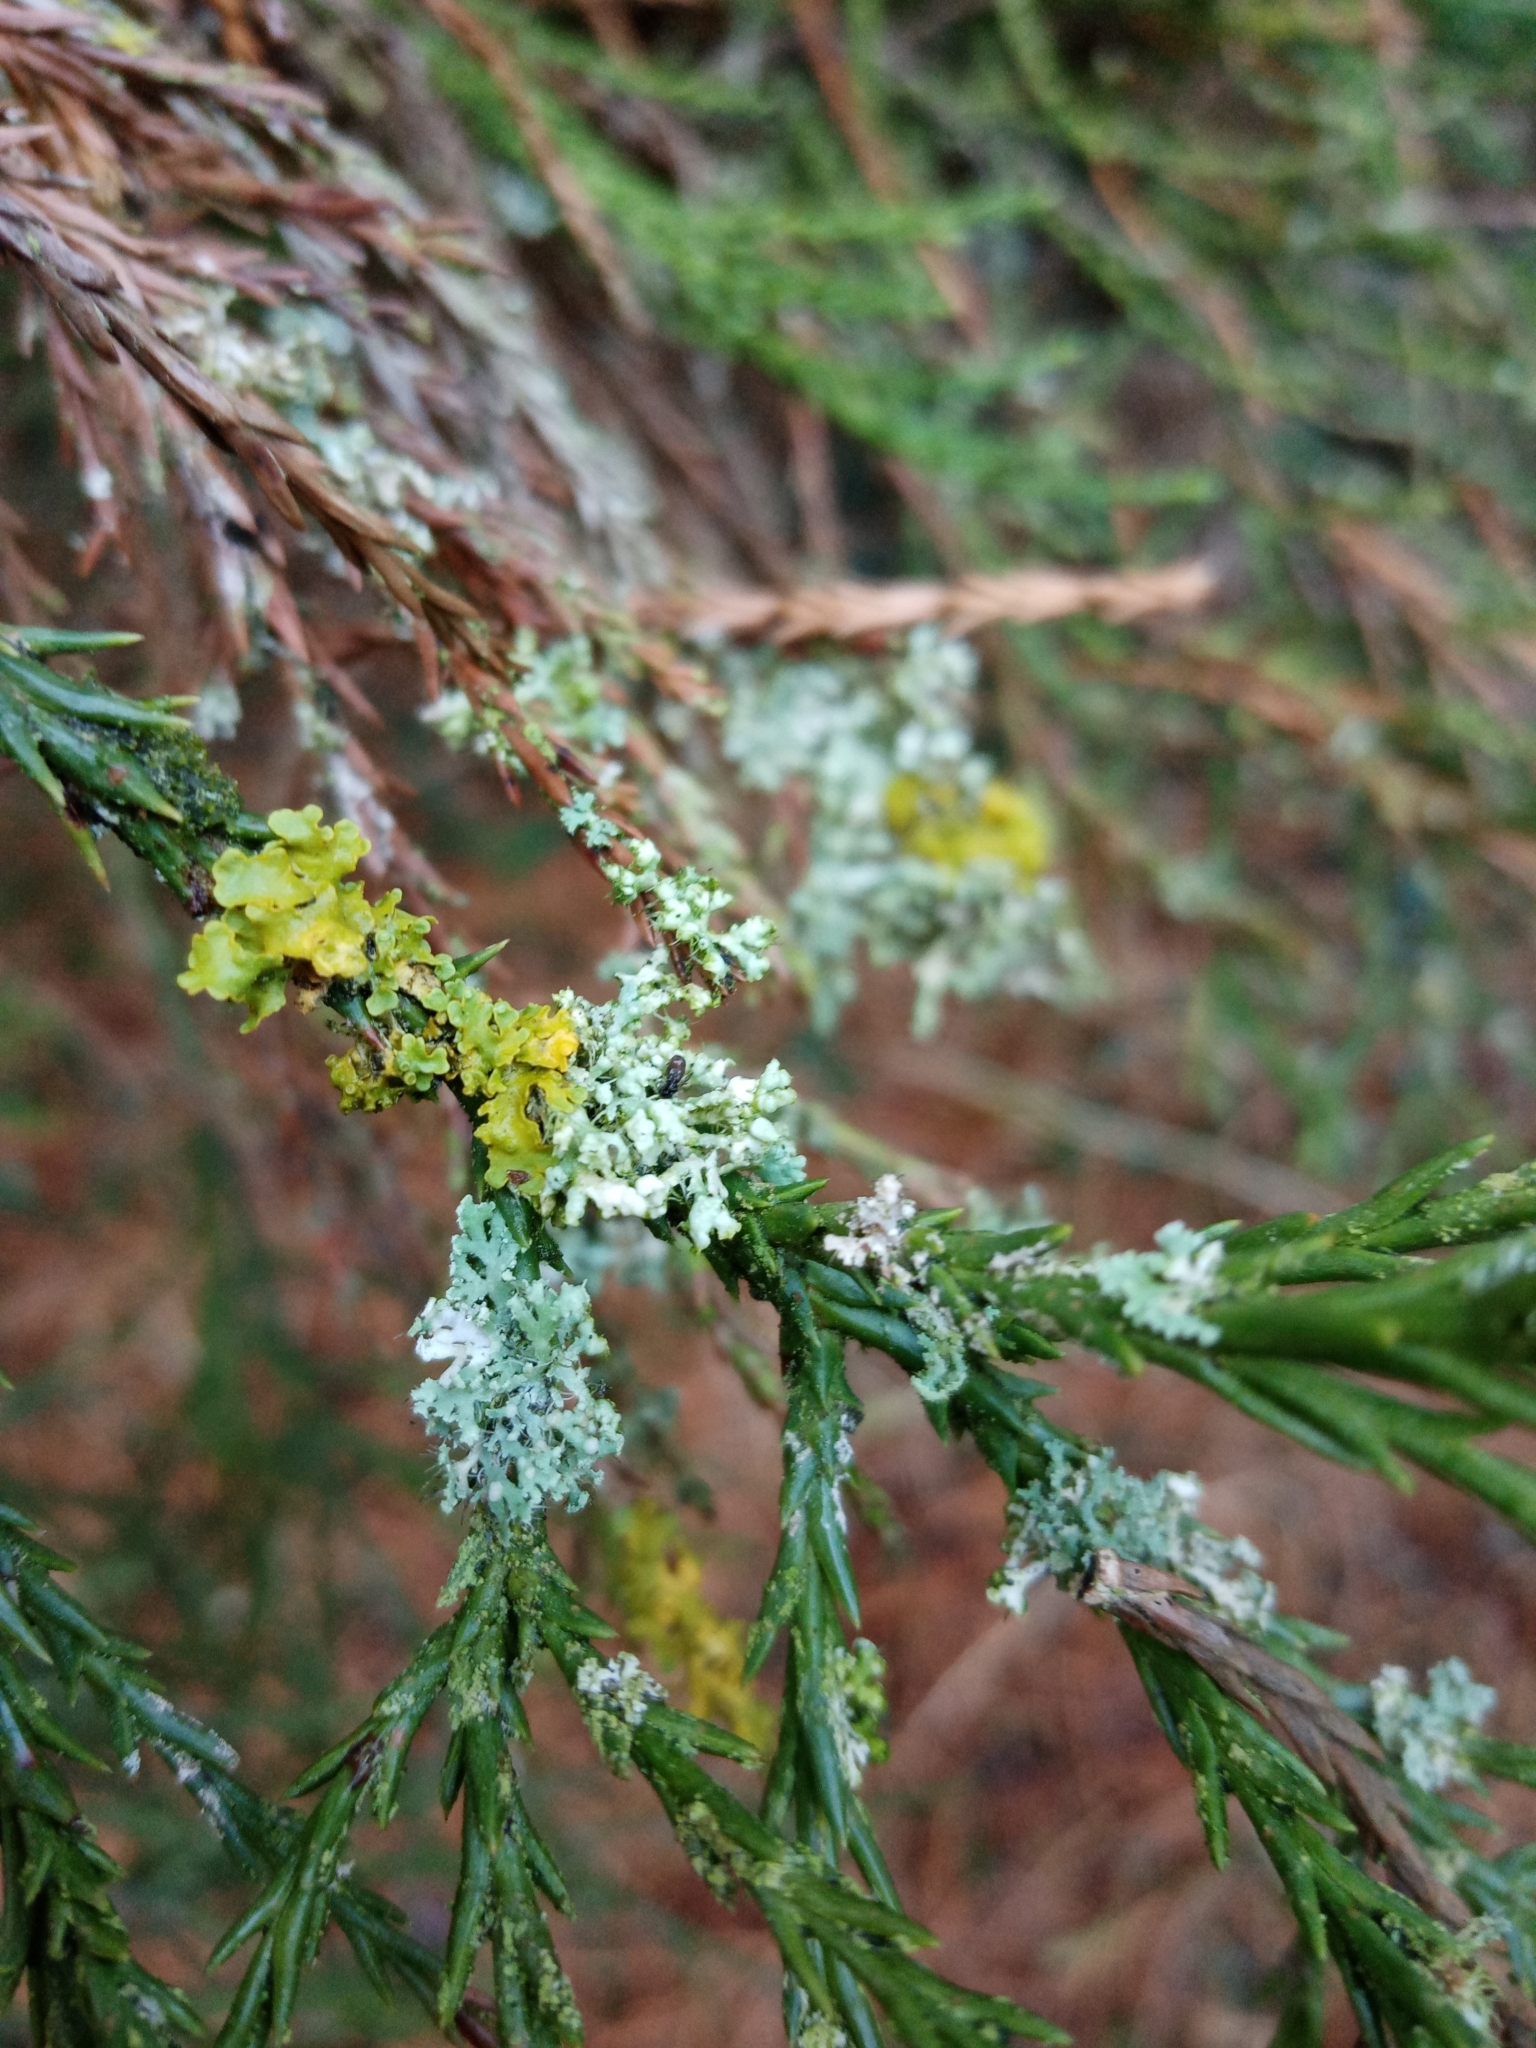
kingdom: Fungi
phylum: Ascomycota
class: Lecanoromycetes
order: Teloschistales
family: Teloschistaceae
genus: Xanthoria
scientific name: Xanthoria parietina
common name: Common orange lichen
